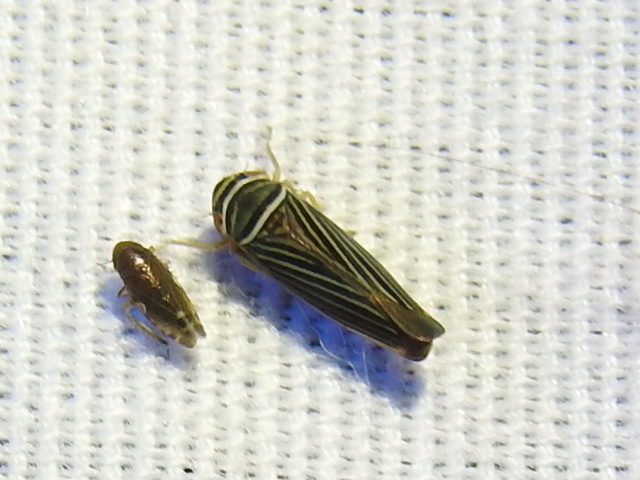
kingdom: Animalia
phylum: Arthropoda
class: Insecta
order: Hemiptera
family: Cicadellidae
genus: Tylozygus
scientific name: Tylozygus bifidus
